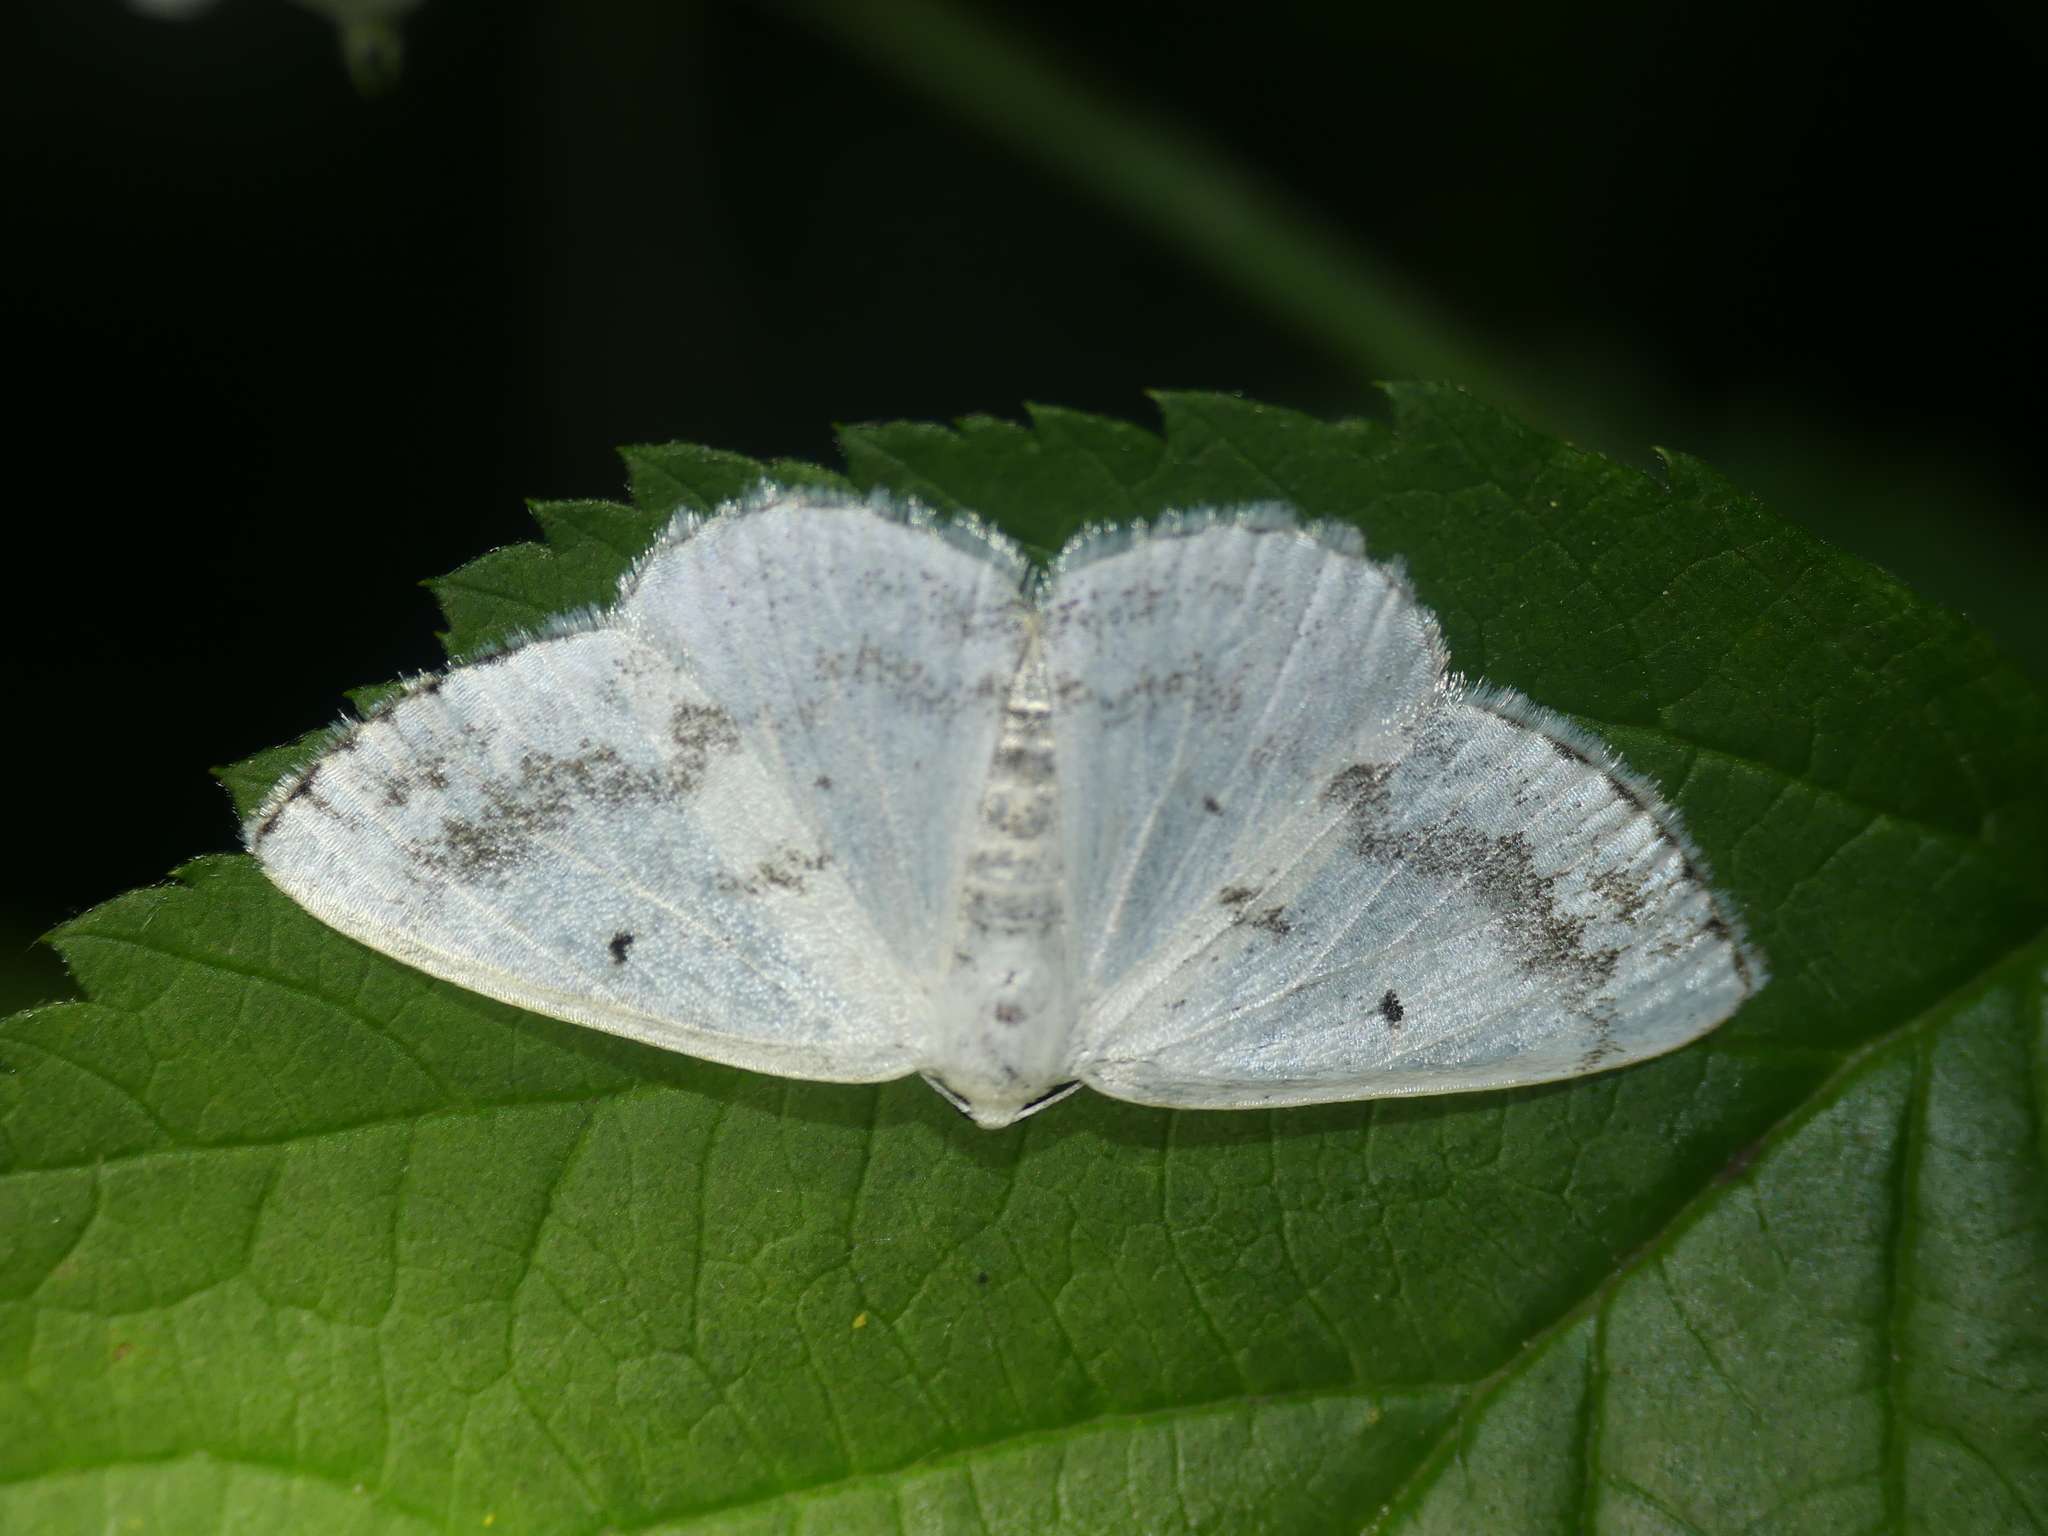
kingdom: Animalia
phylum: Arthropoda
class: Insecta
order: Lepidoptera
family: Geometridae
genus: Lomographa
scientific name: Lomographa temerata
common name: Clouded silver
